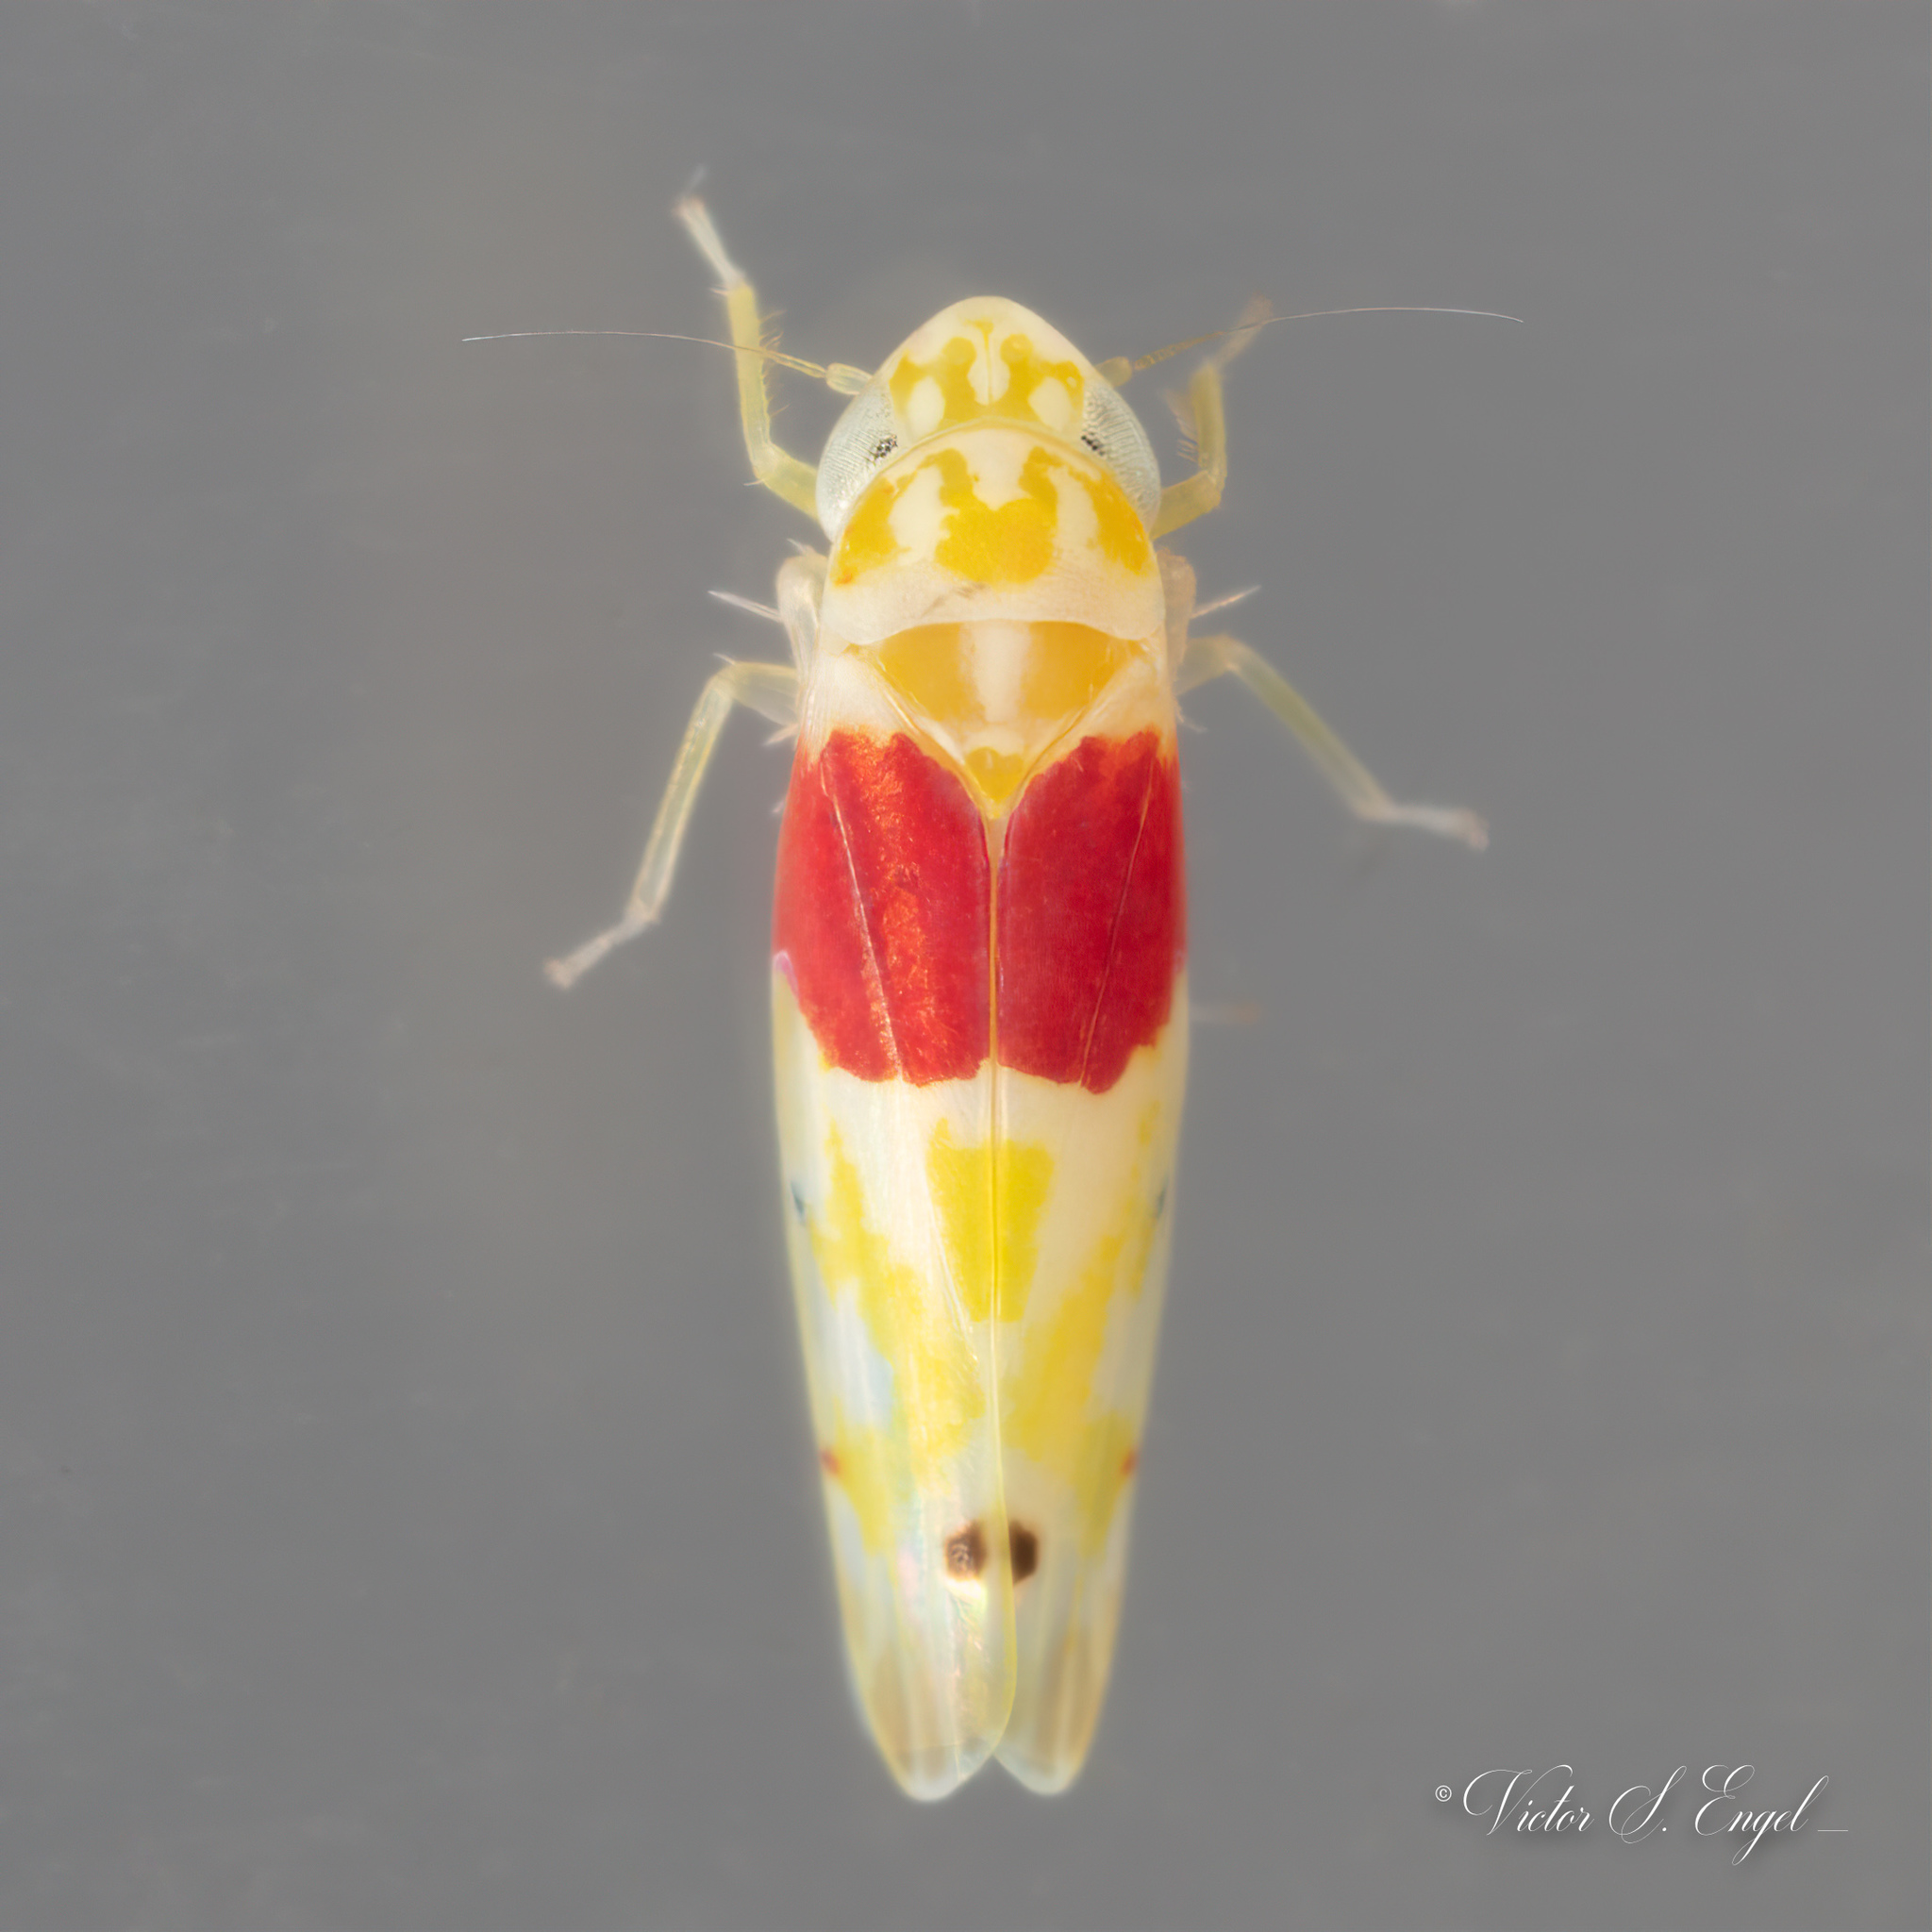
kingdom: Animalia
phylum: Arthropoda
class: Insecta
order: Hemiptera
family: Cicadellidae
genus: Eratoneura
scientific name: Eratoneura osborni
